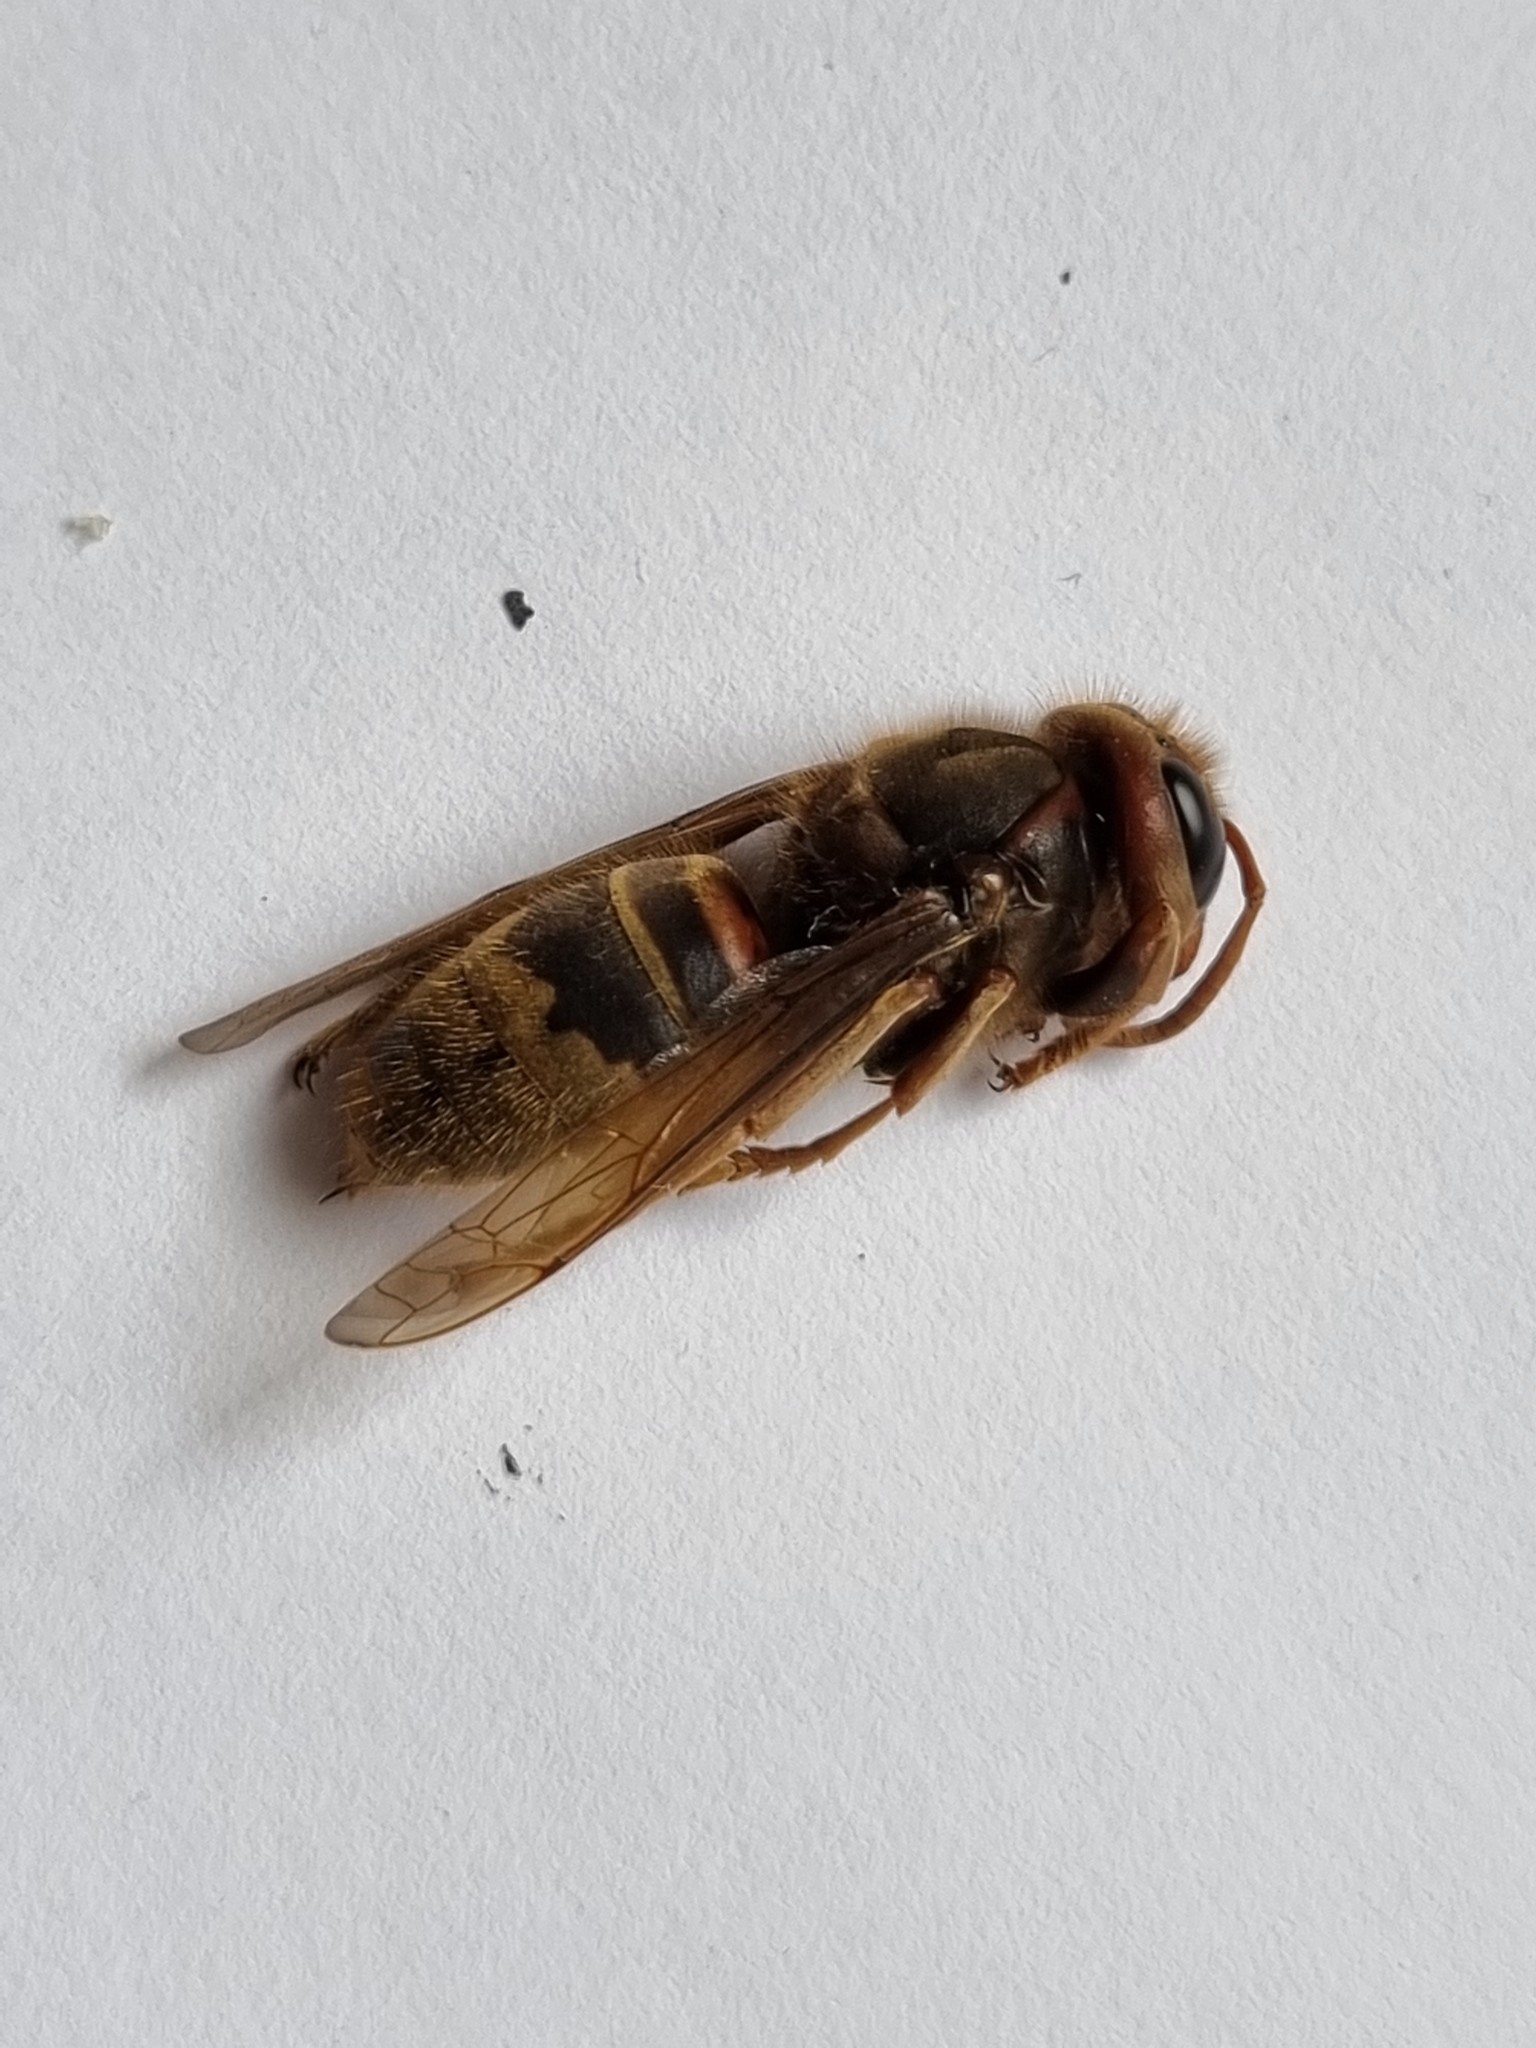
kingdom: Animalia
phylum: Arthropoda
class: Insecta
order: Hymenoptera
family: Vespidae
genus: Vespa
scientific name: Vespa crabro
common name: Hornet
